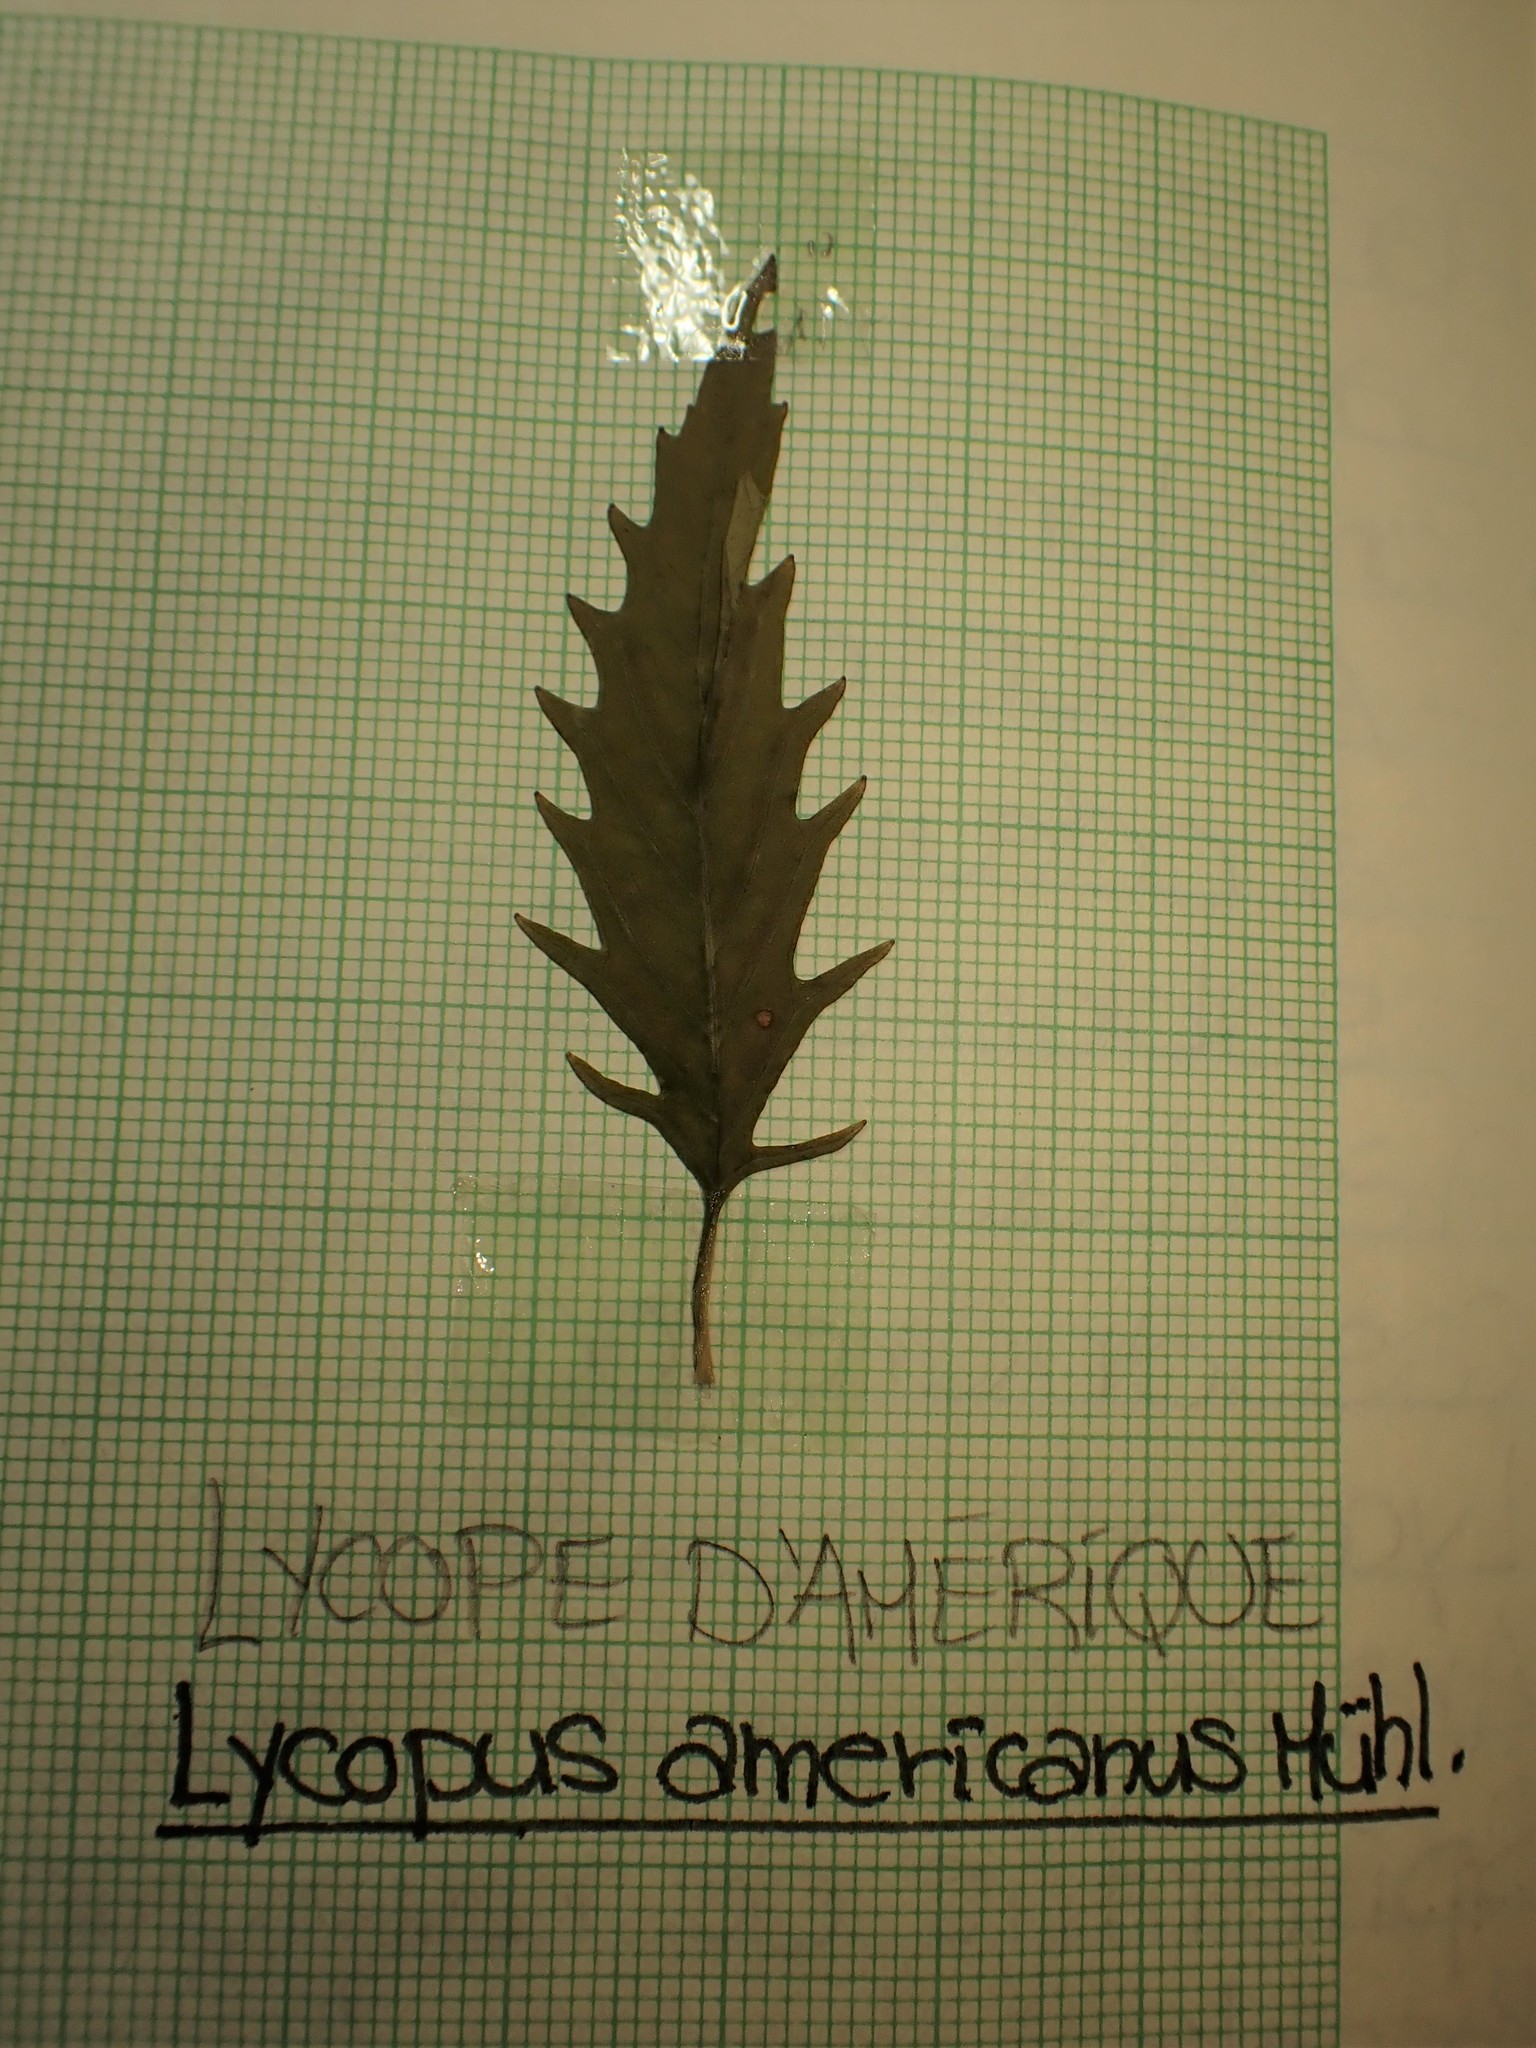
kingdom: Plantae
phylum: Tracheophyta
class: Magnoliopsida
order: Lamiales
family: Lamiaceae
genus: Lycopus
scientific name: Lycopus americanus
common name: American bugleweed
